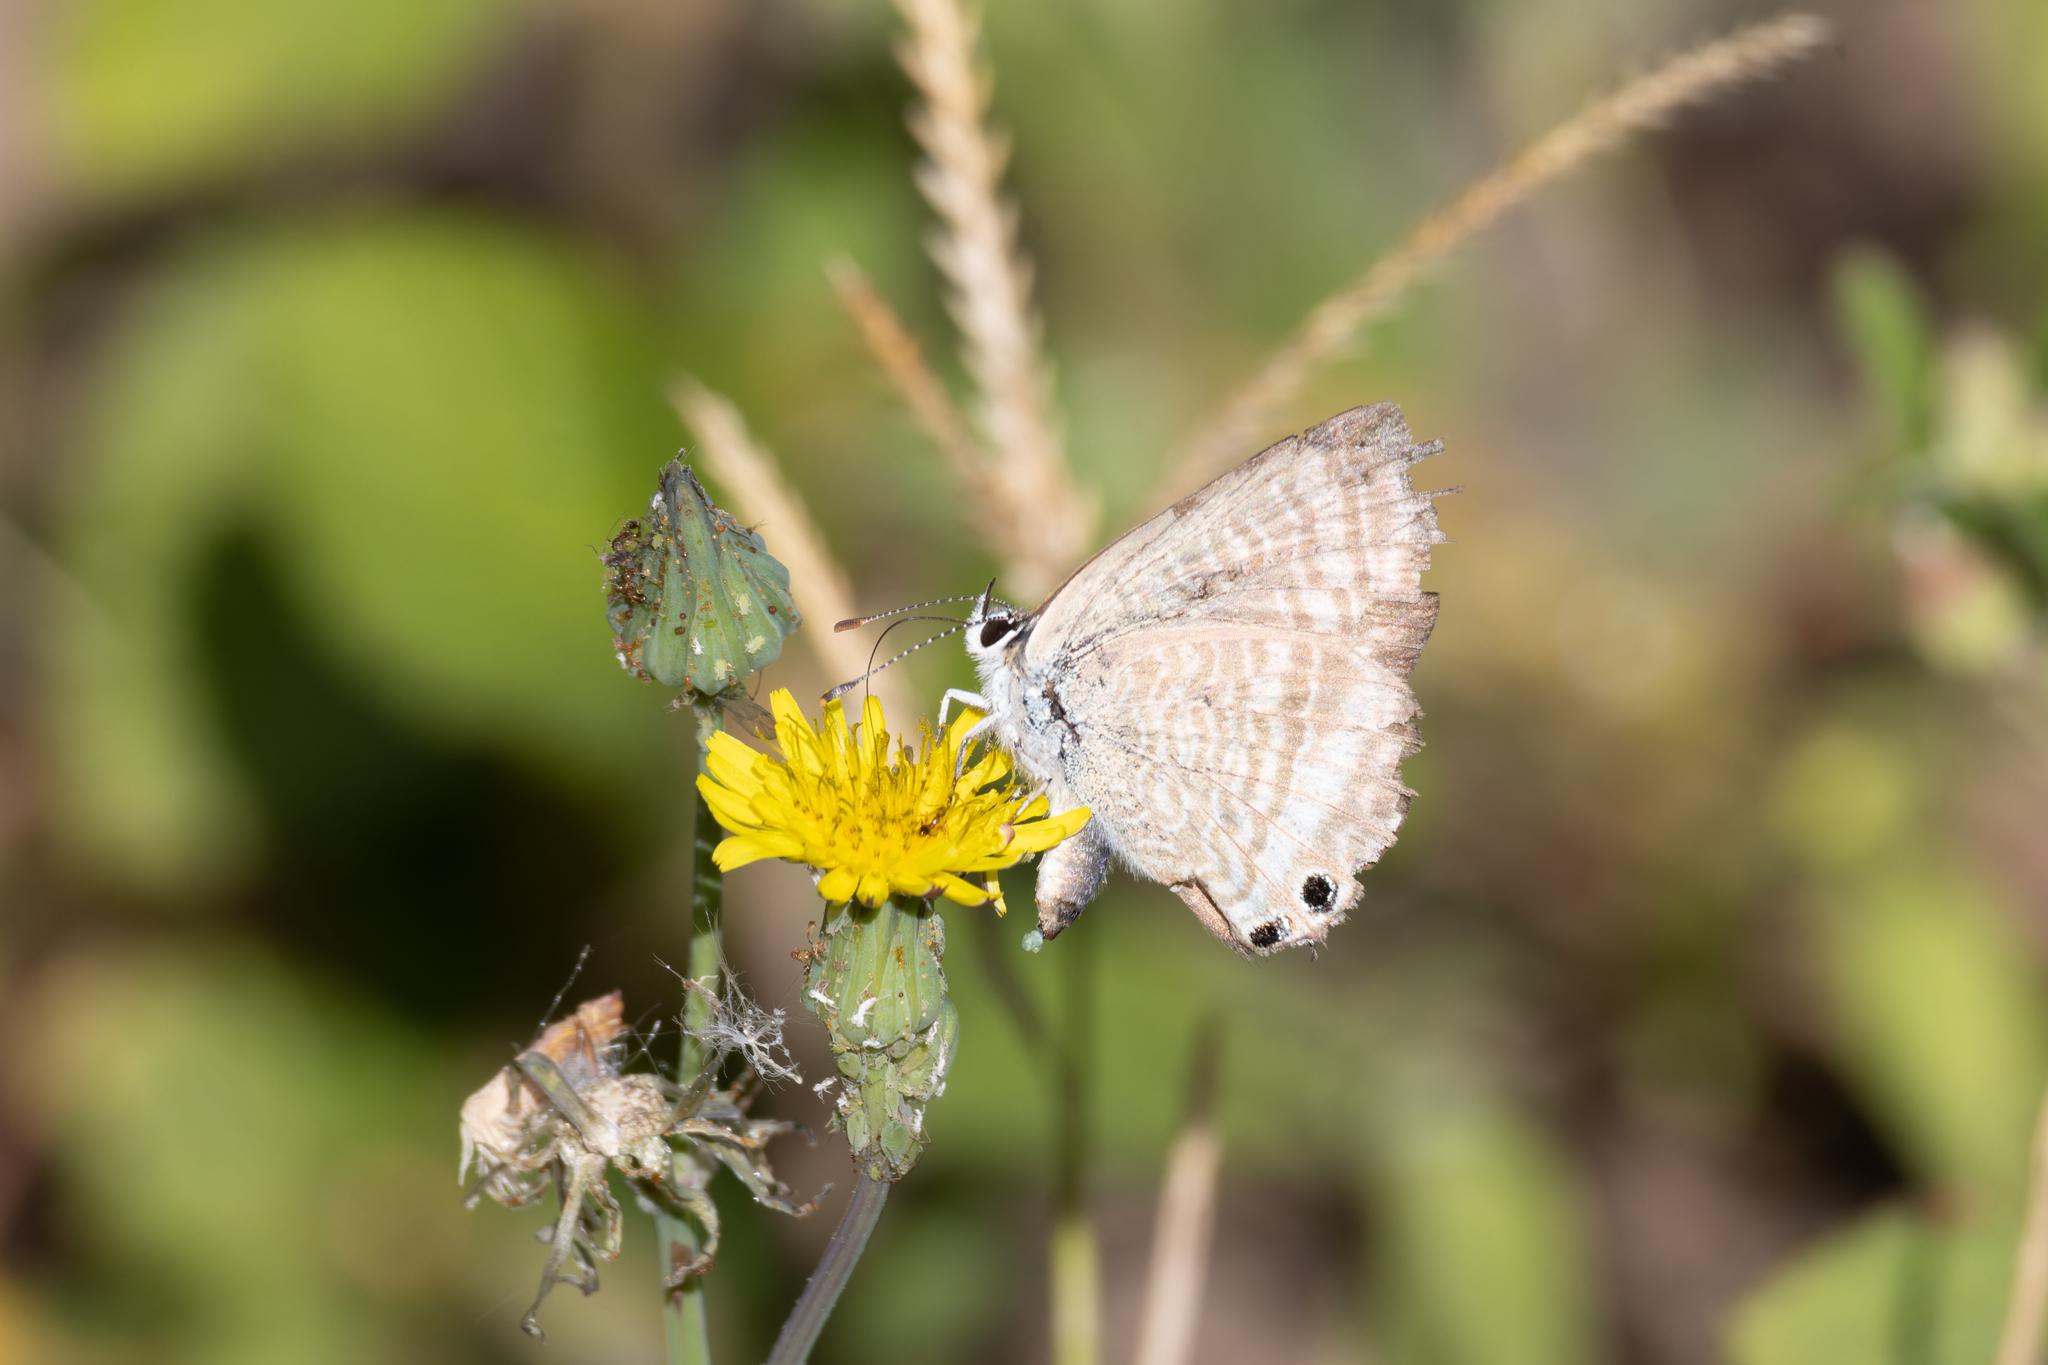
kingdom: Animalia
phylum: Arthropoda
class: Insecta
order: Lepidoptera
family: Lycaenidae
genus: Lampides
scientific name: Lampides boeticus
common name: Long-tailed blue
